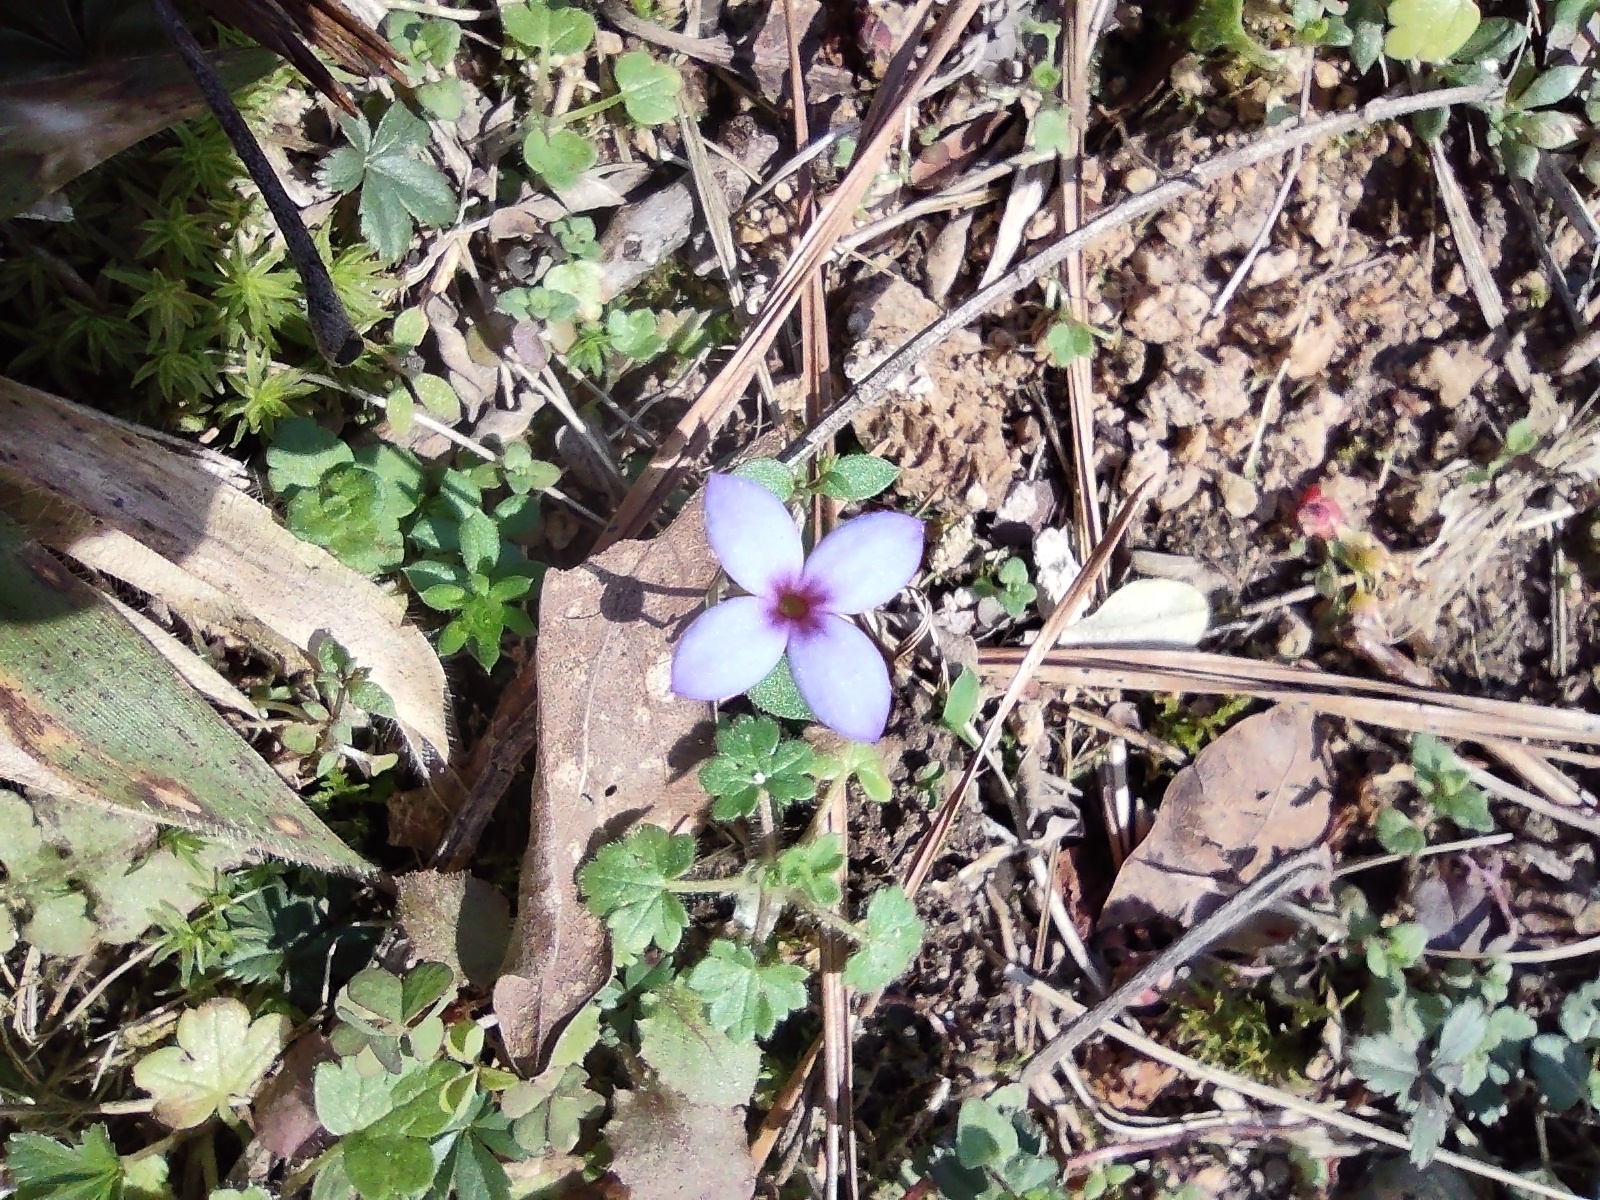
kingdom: Plantae
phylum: Tracheophyta
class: Magnoliopsida
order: Gentianales
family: Rubiaceae
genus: Houstonia
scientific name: Houstonia pusilla
